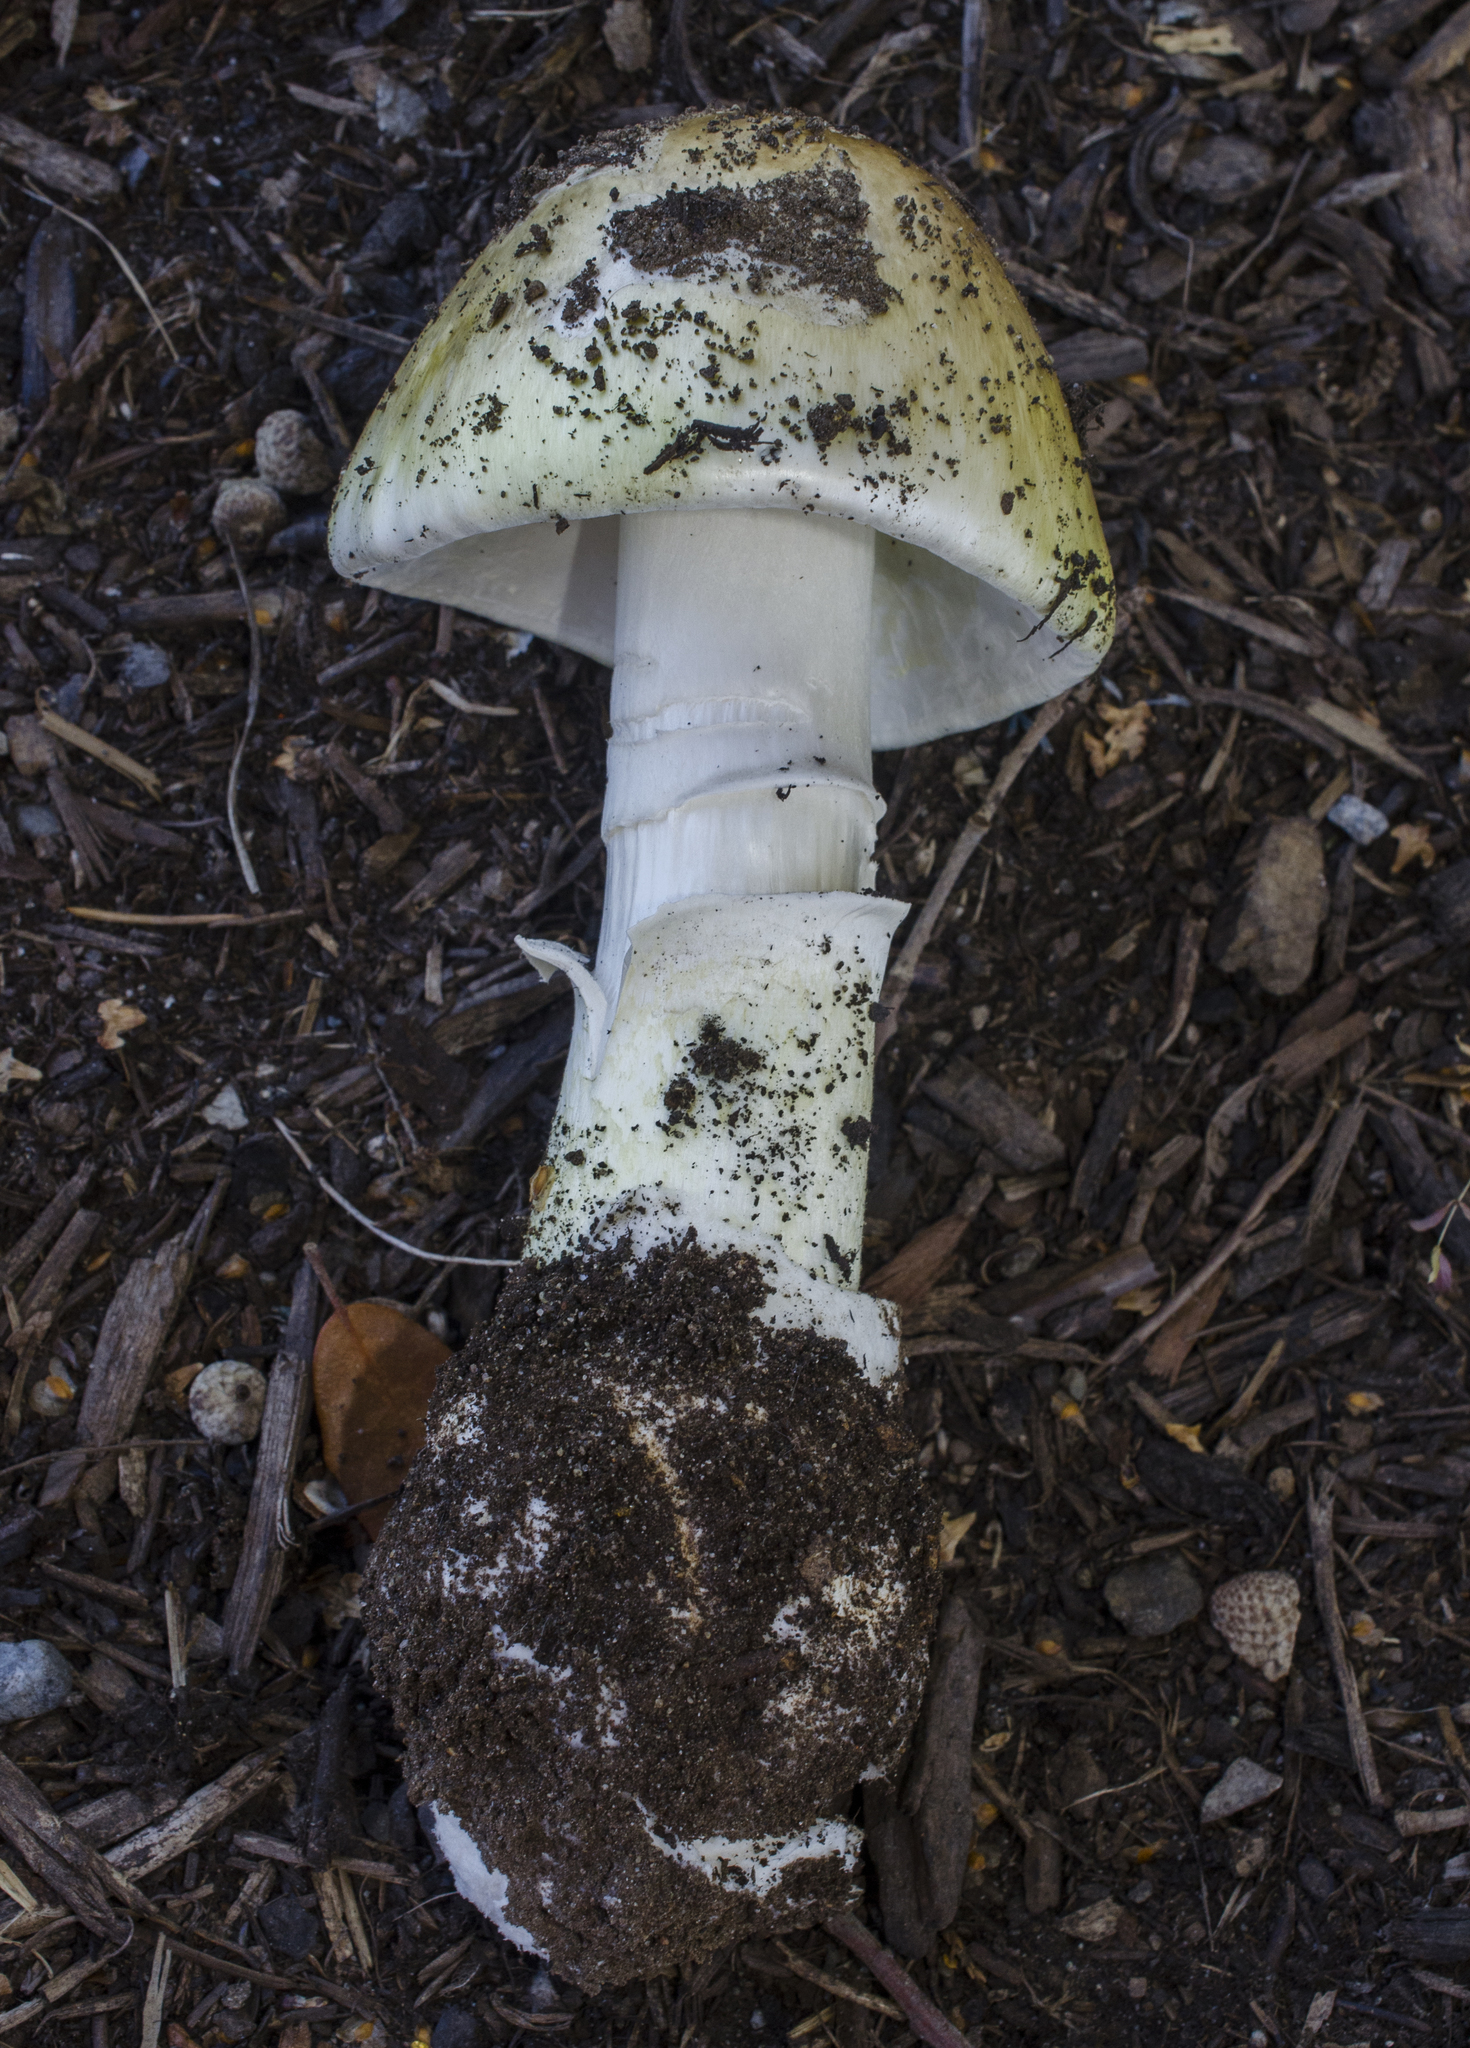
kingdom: Fungi
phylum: Basidiomycota
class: Agaricomycetes
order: Agaricales
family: Amanitaceae
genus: Amanita
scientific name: Amanita phalloides
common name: Death cap
